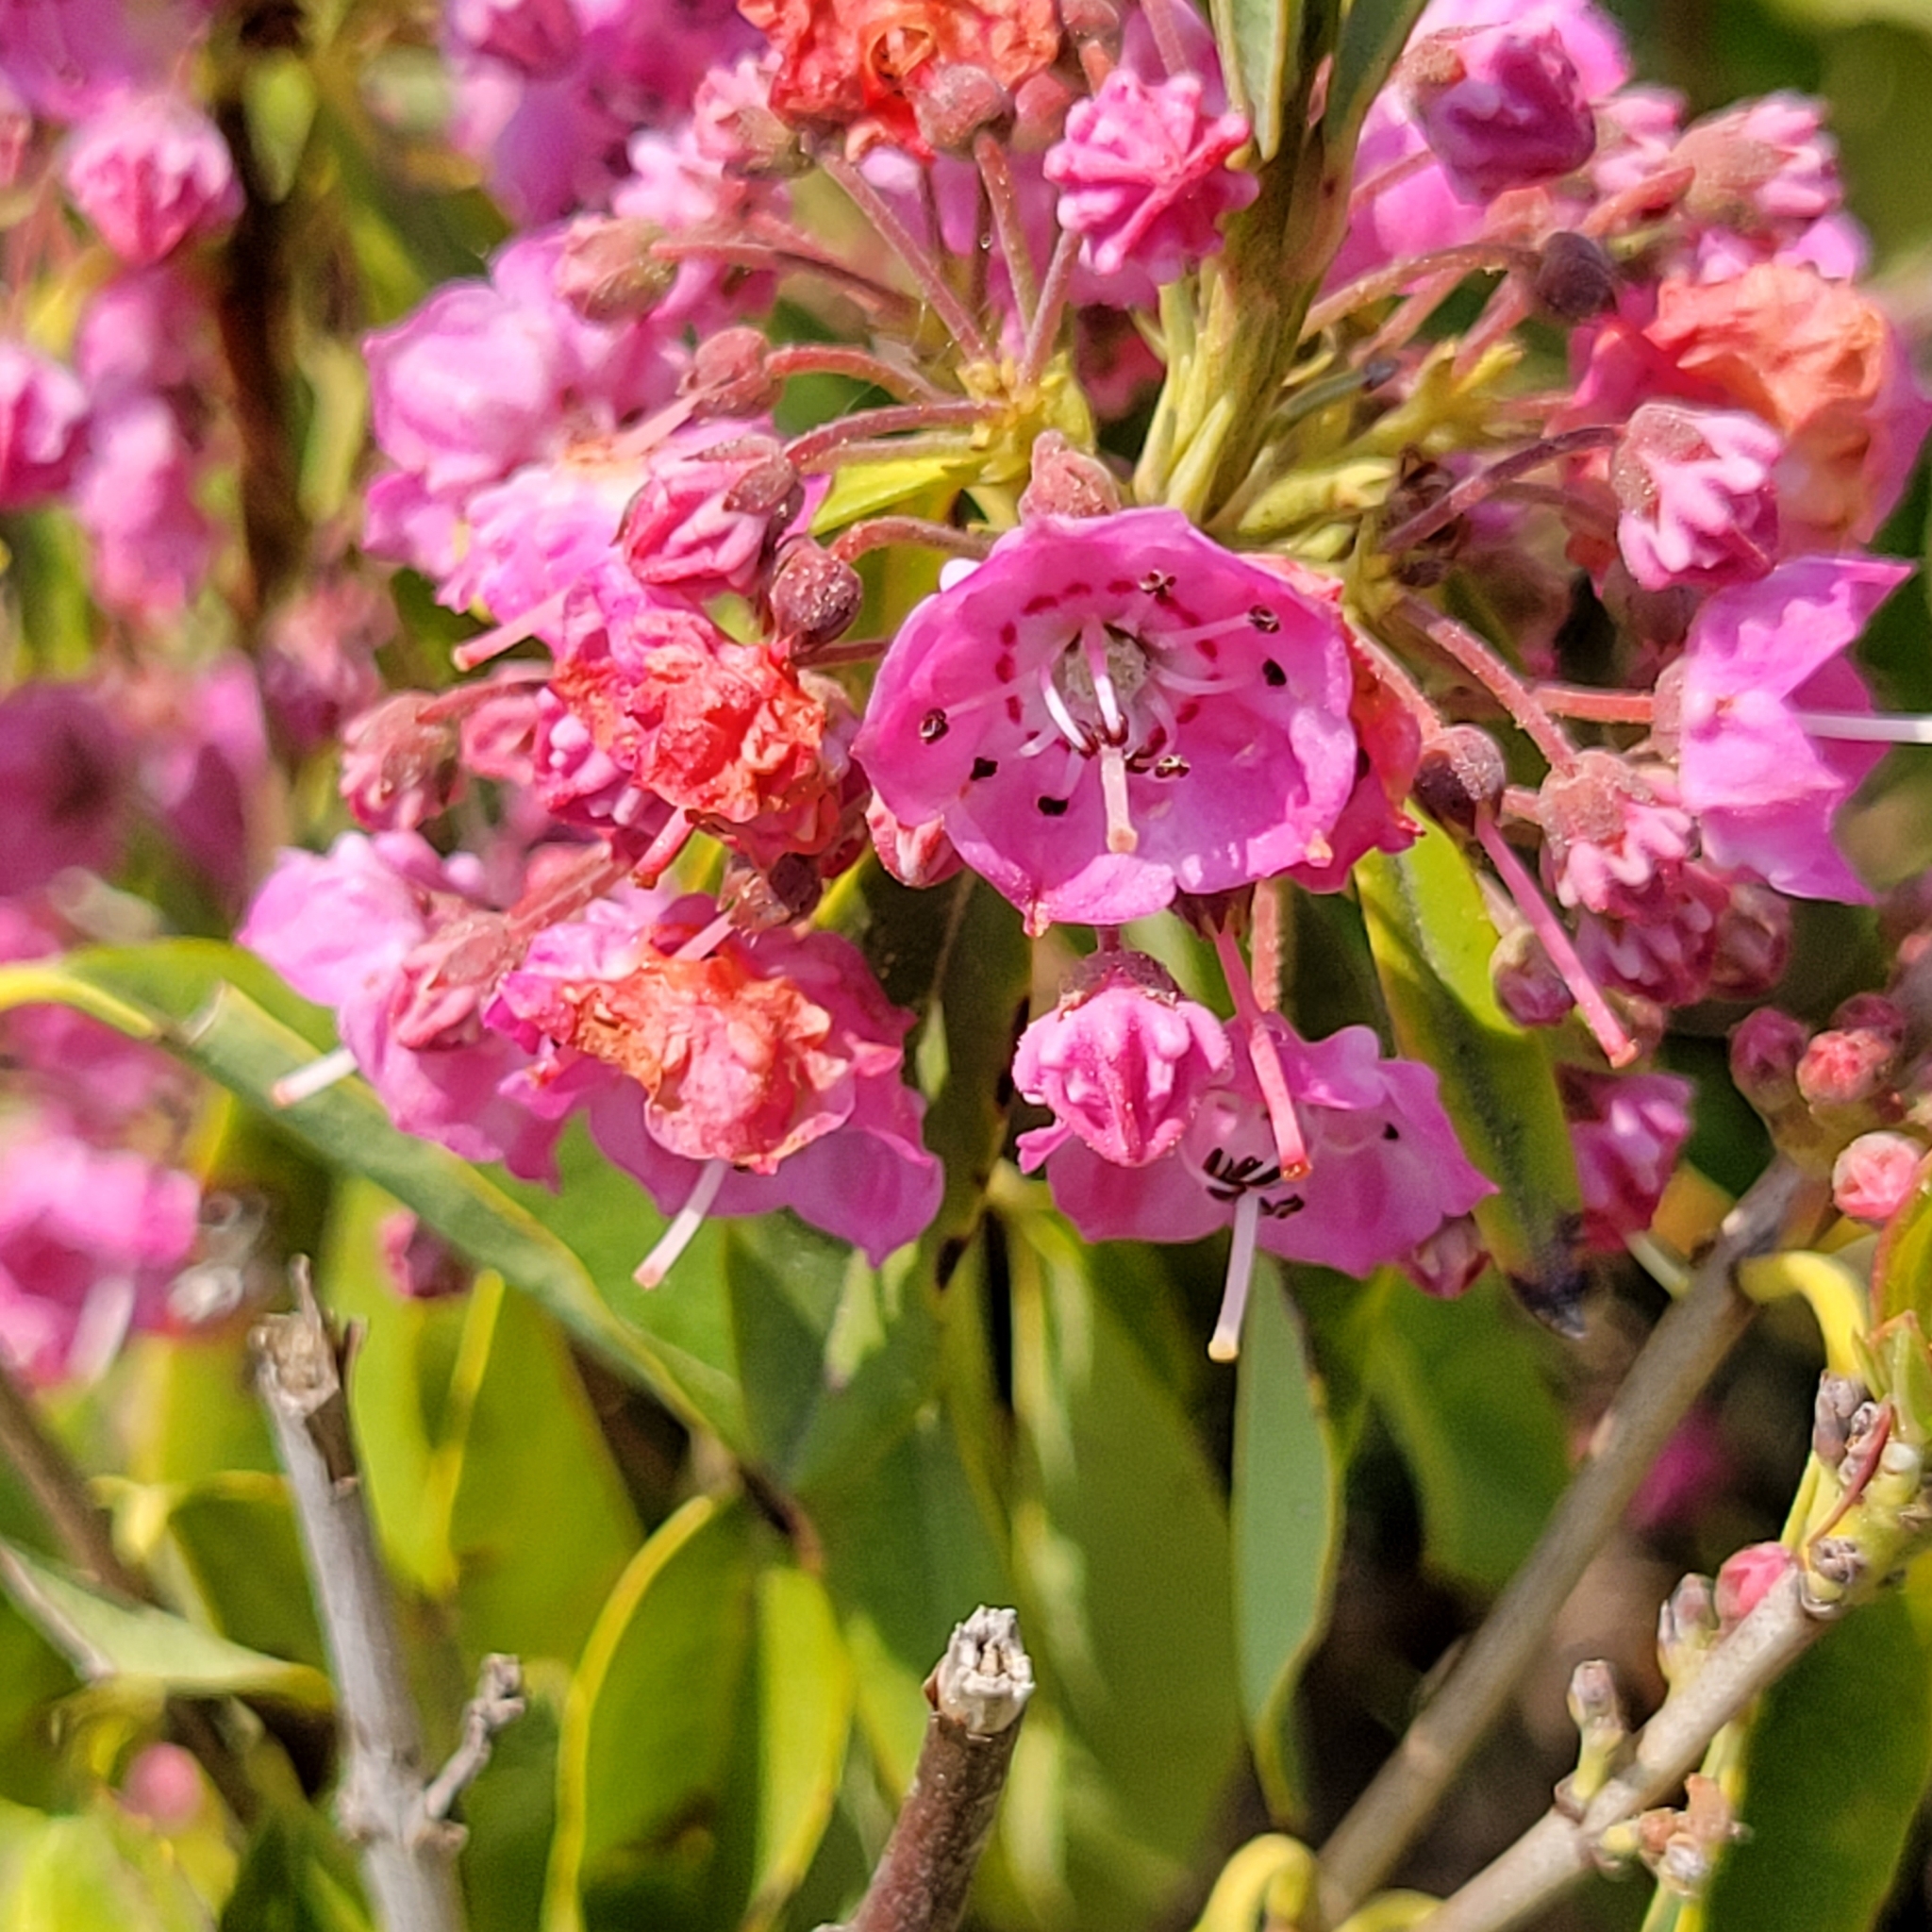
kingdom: Plantae
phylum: Tracheophyta
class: Magnoliopsida
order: Ericales
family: Ericaceae
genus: Kalmia
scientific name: Kalmia angustifolia
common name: Sheep-laurel
